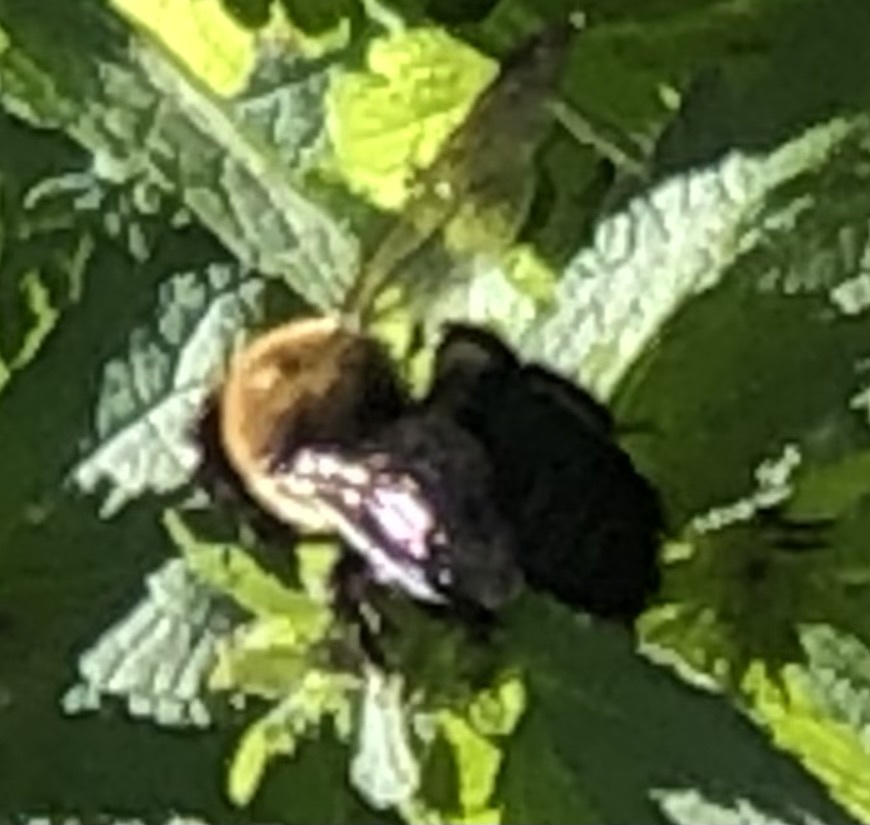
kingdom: Animalia
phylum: Arthropoda
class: Insecta
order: Hymenoptera
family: Apidae
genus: Xylocopa
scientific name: Xylocopa virginica
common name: Carpenter bee
